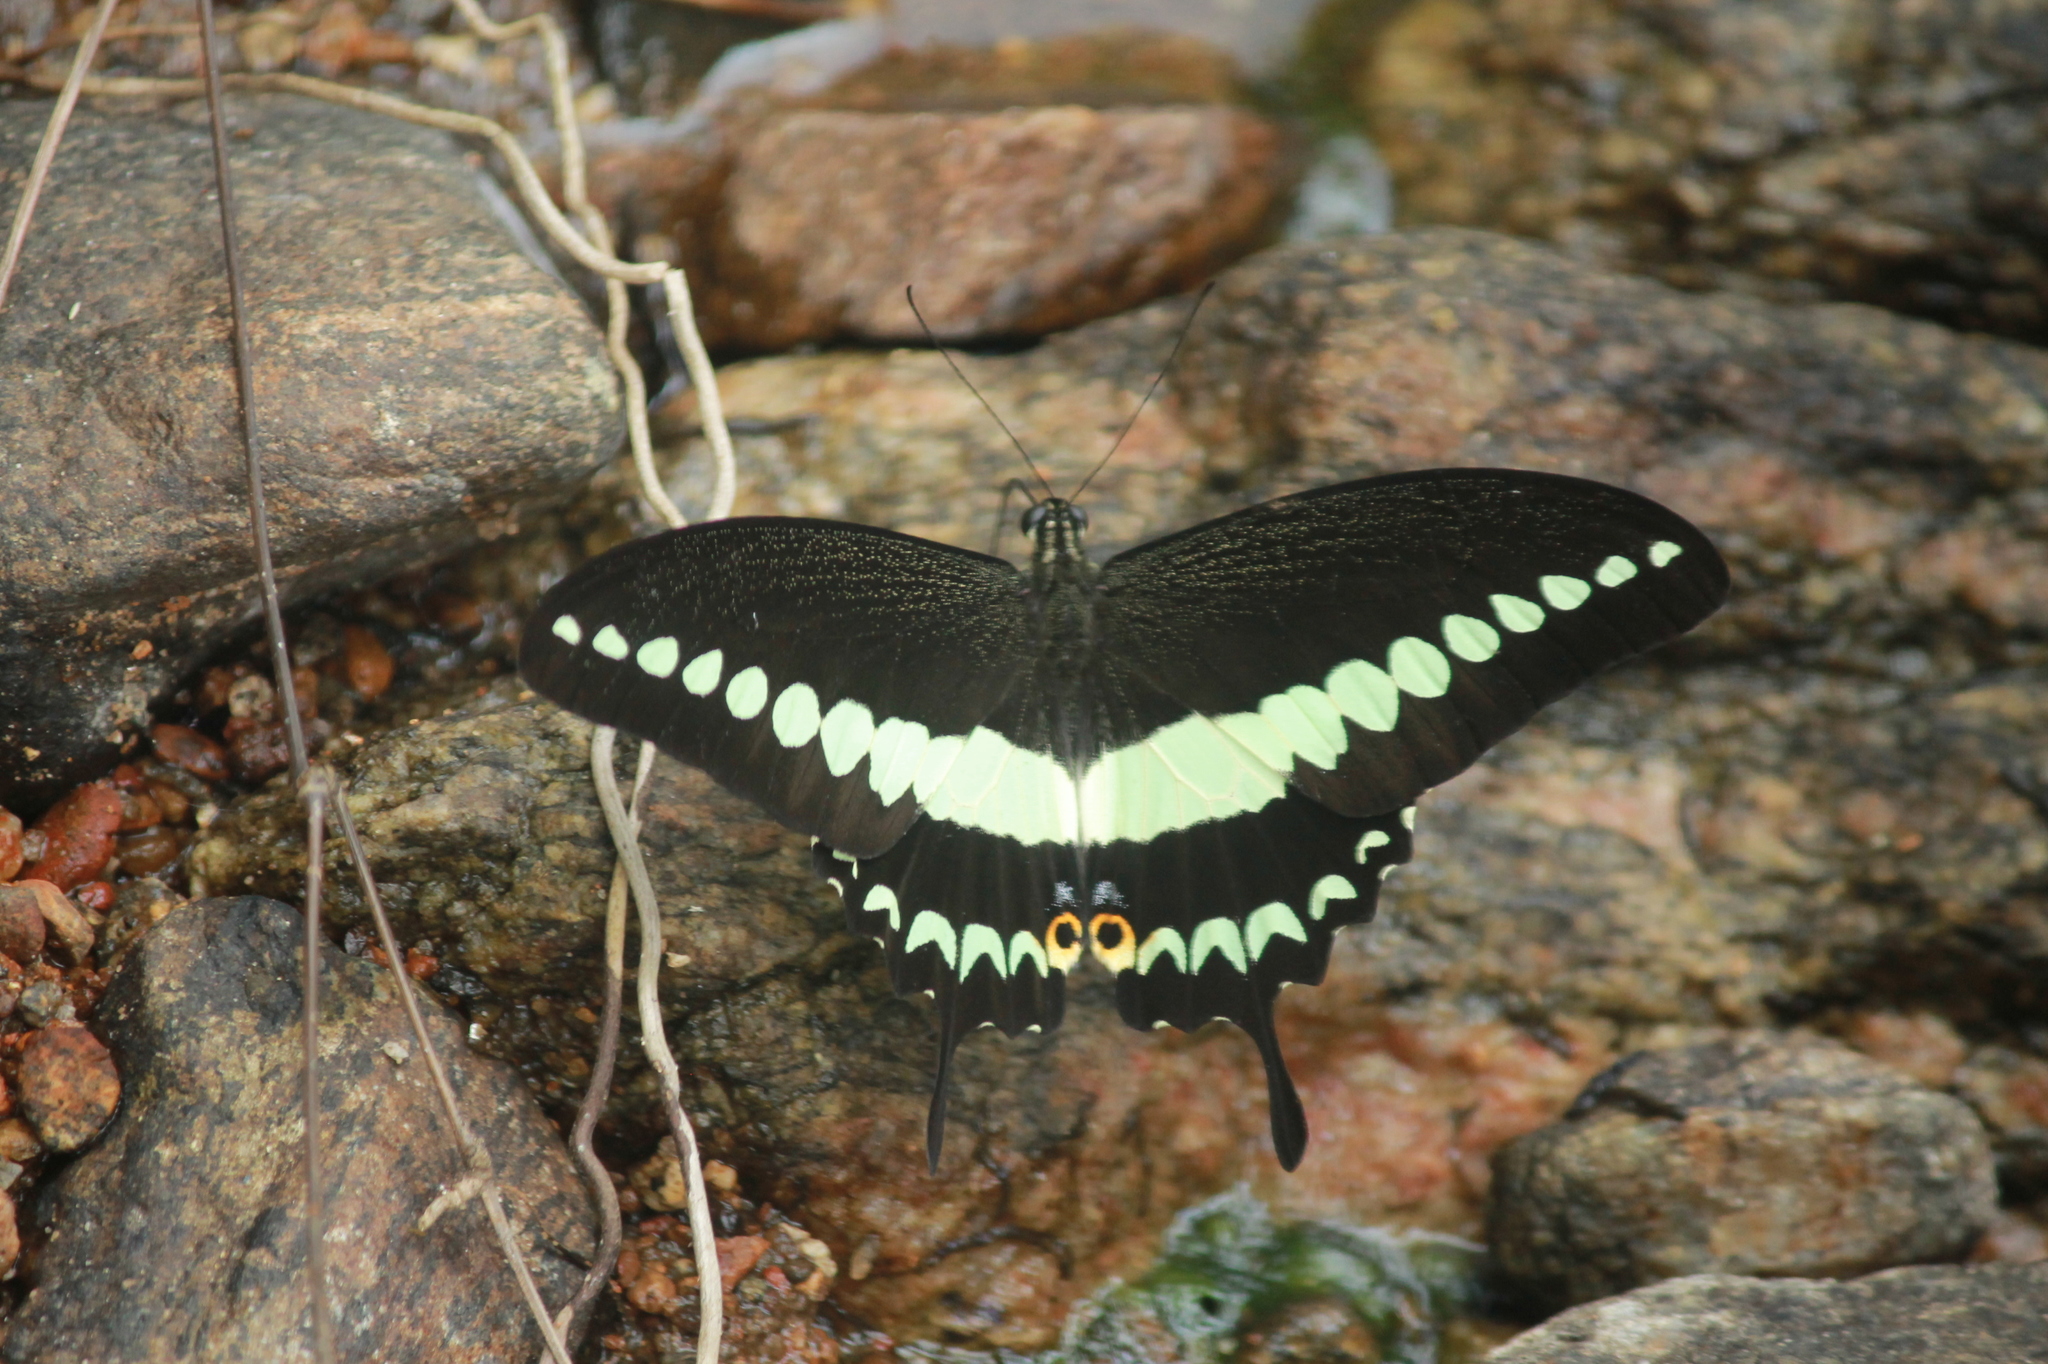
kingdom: Animalia
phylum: Arthropoda
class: Insecta
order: Lepidoptera
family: Papilionidae
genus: Papilio
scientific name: Papilio liomedon
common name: Malabar banded swallowtail
